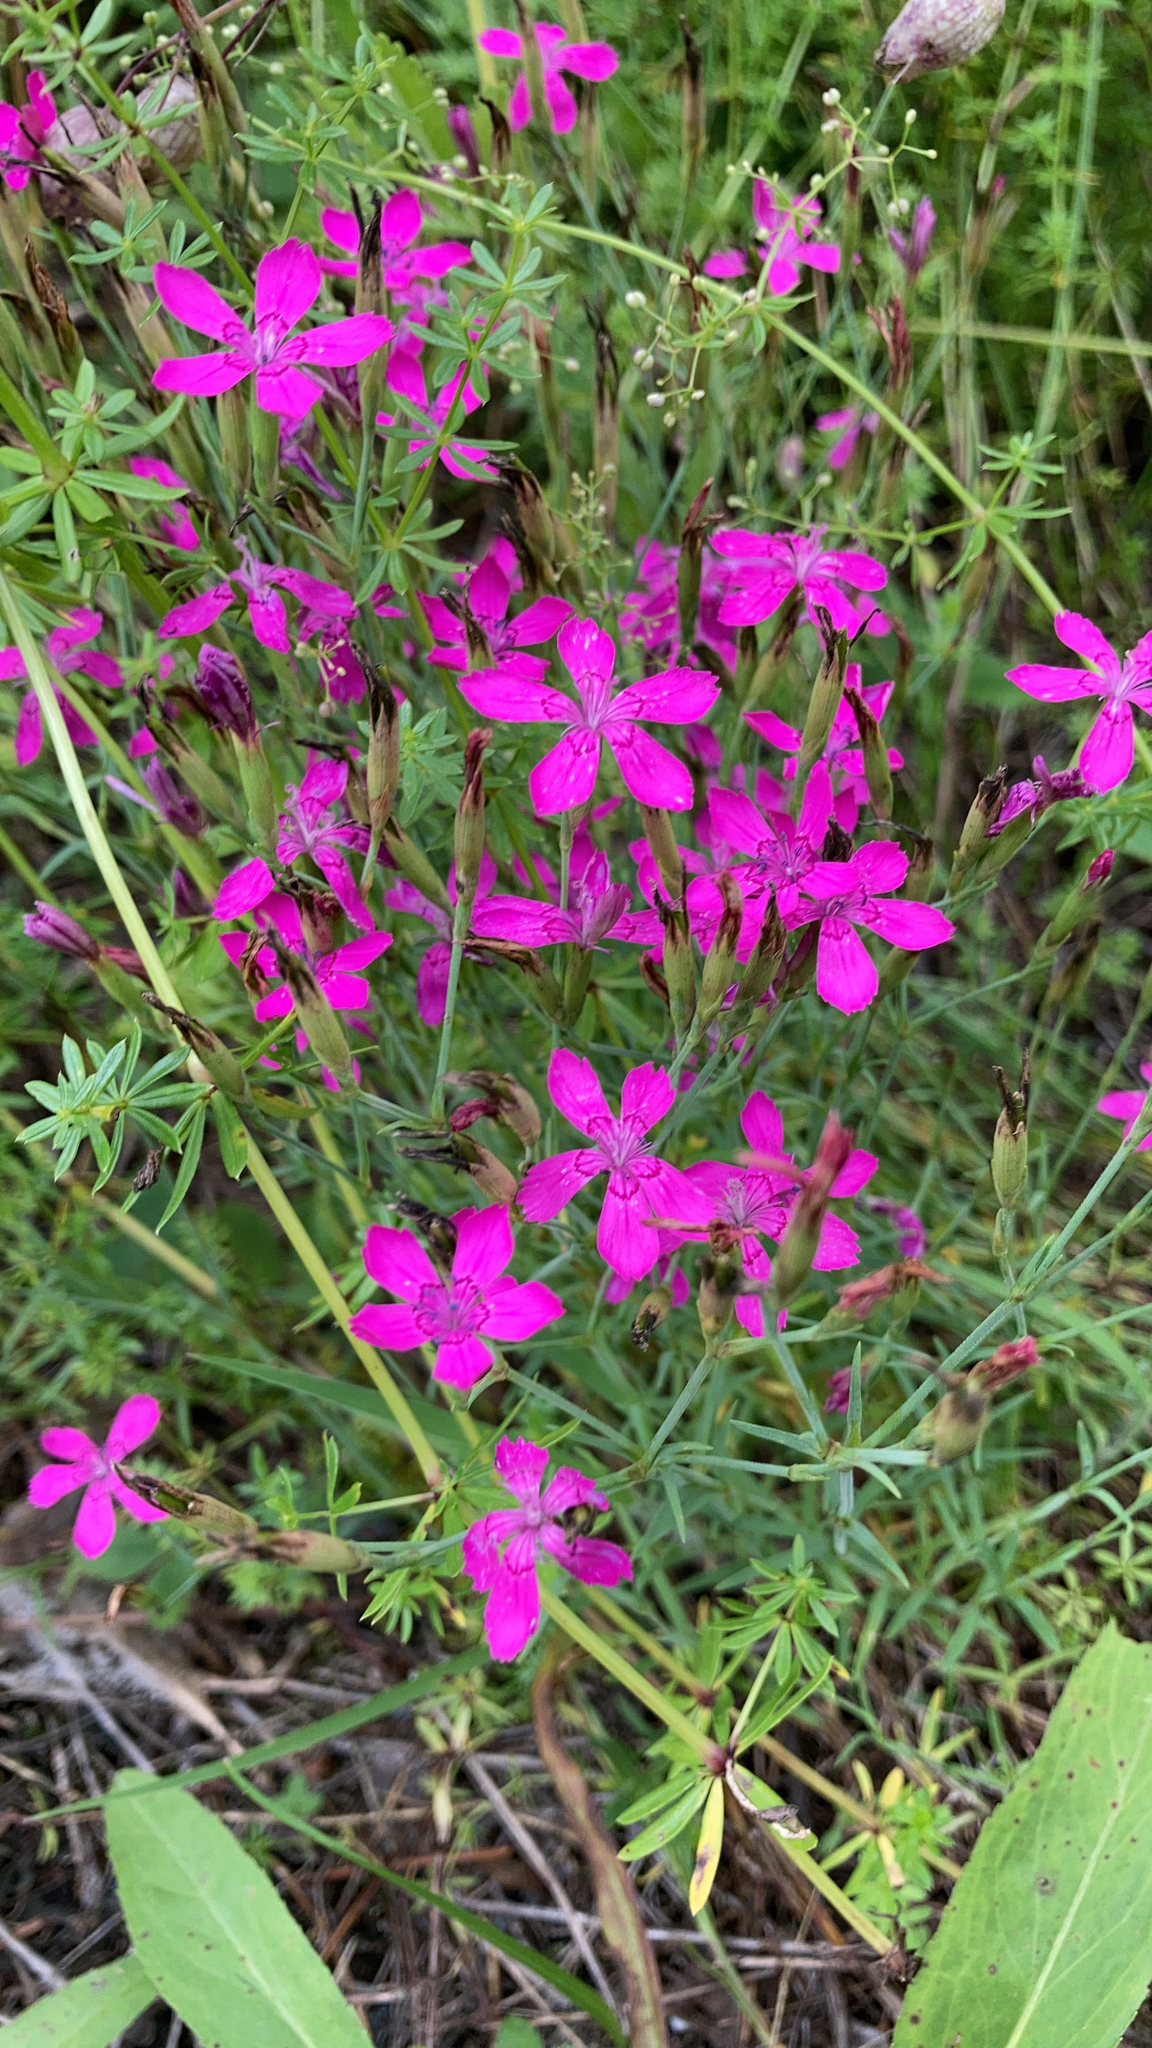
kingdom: Plantae
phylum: Tracheophyta
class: Magnoliopsida
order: Caryophyllales
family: Caryophyllaceae
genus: Dianthus
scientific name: Dianthus deltoides
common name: Maiden pink
